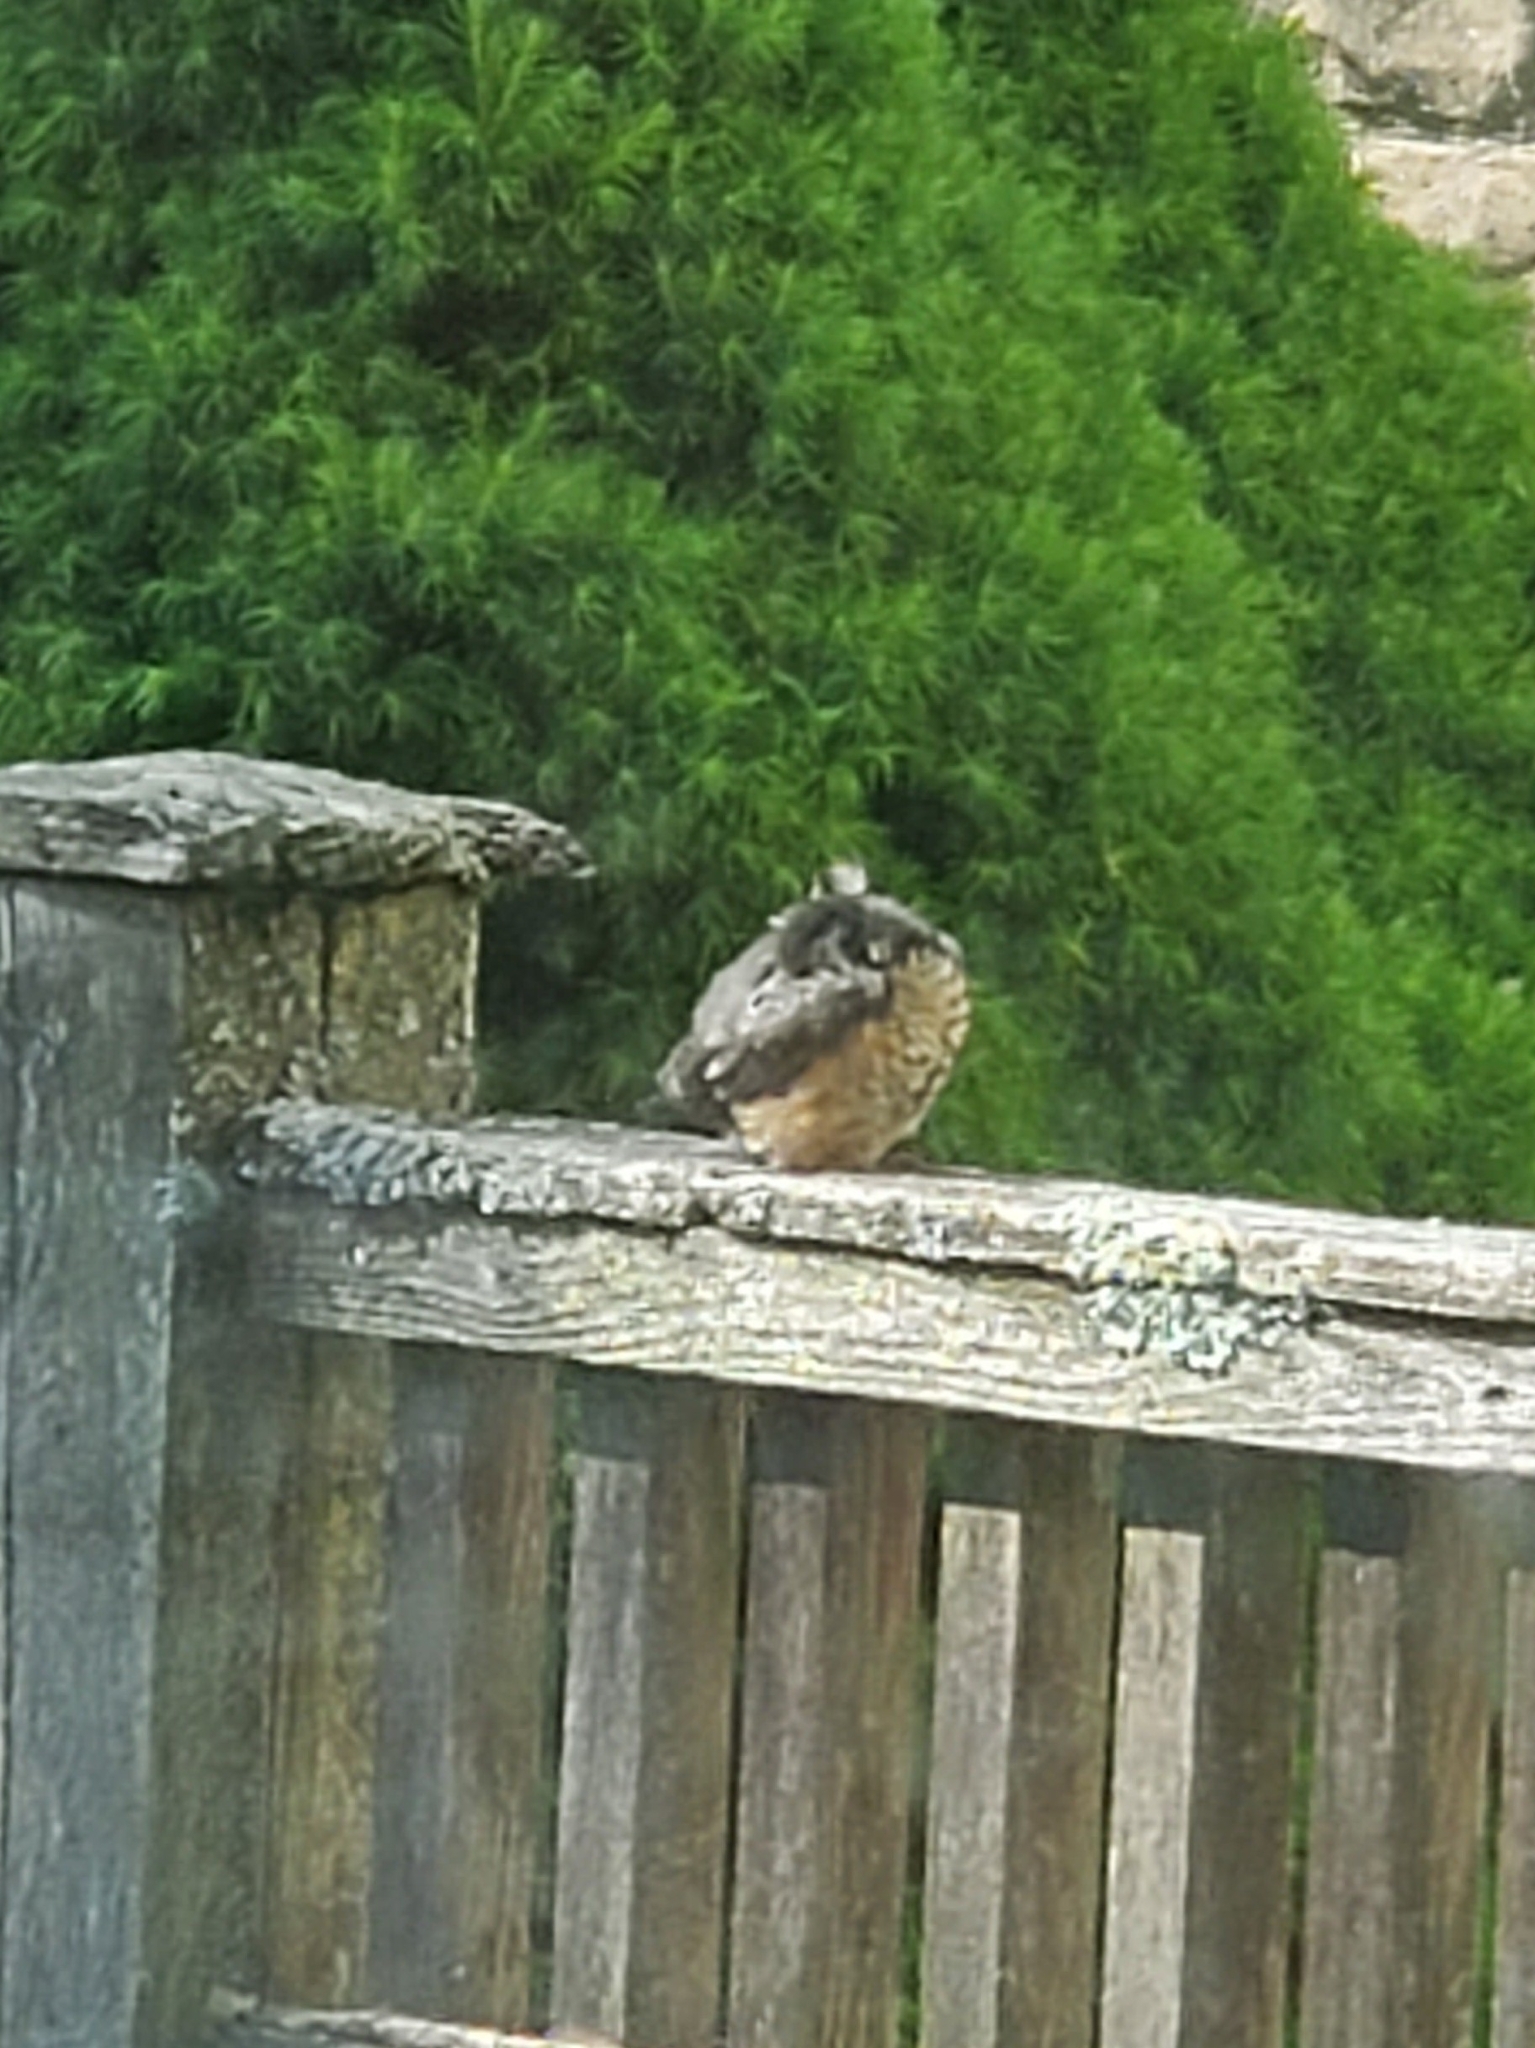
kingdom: Animalia
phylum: Chordata
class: Aves
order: Passeriformes
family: Turdidae
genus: Turdus
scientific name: Turdus migratorius
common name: American robin
